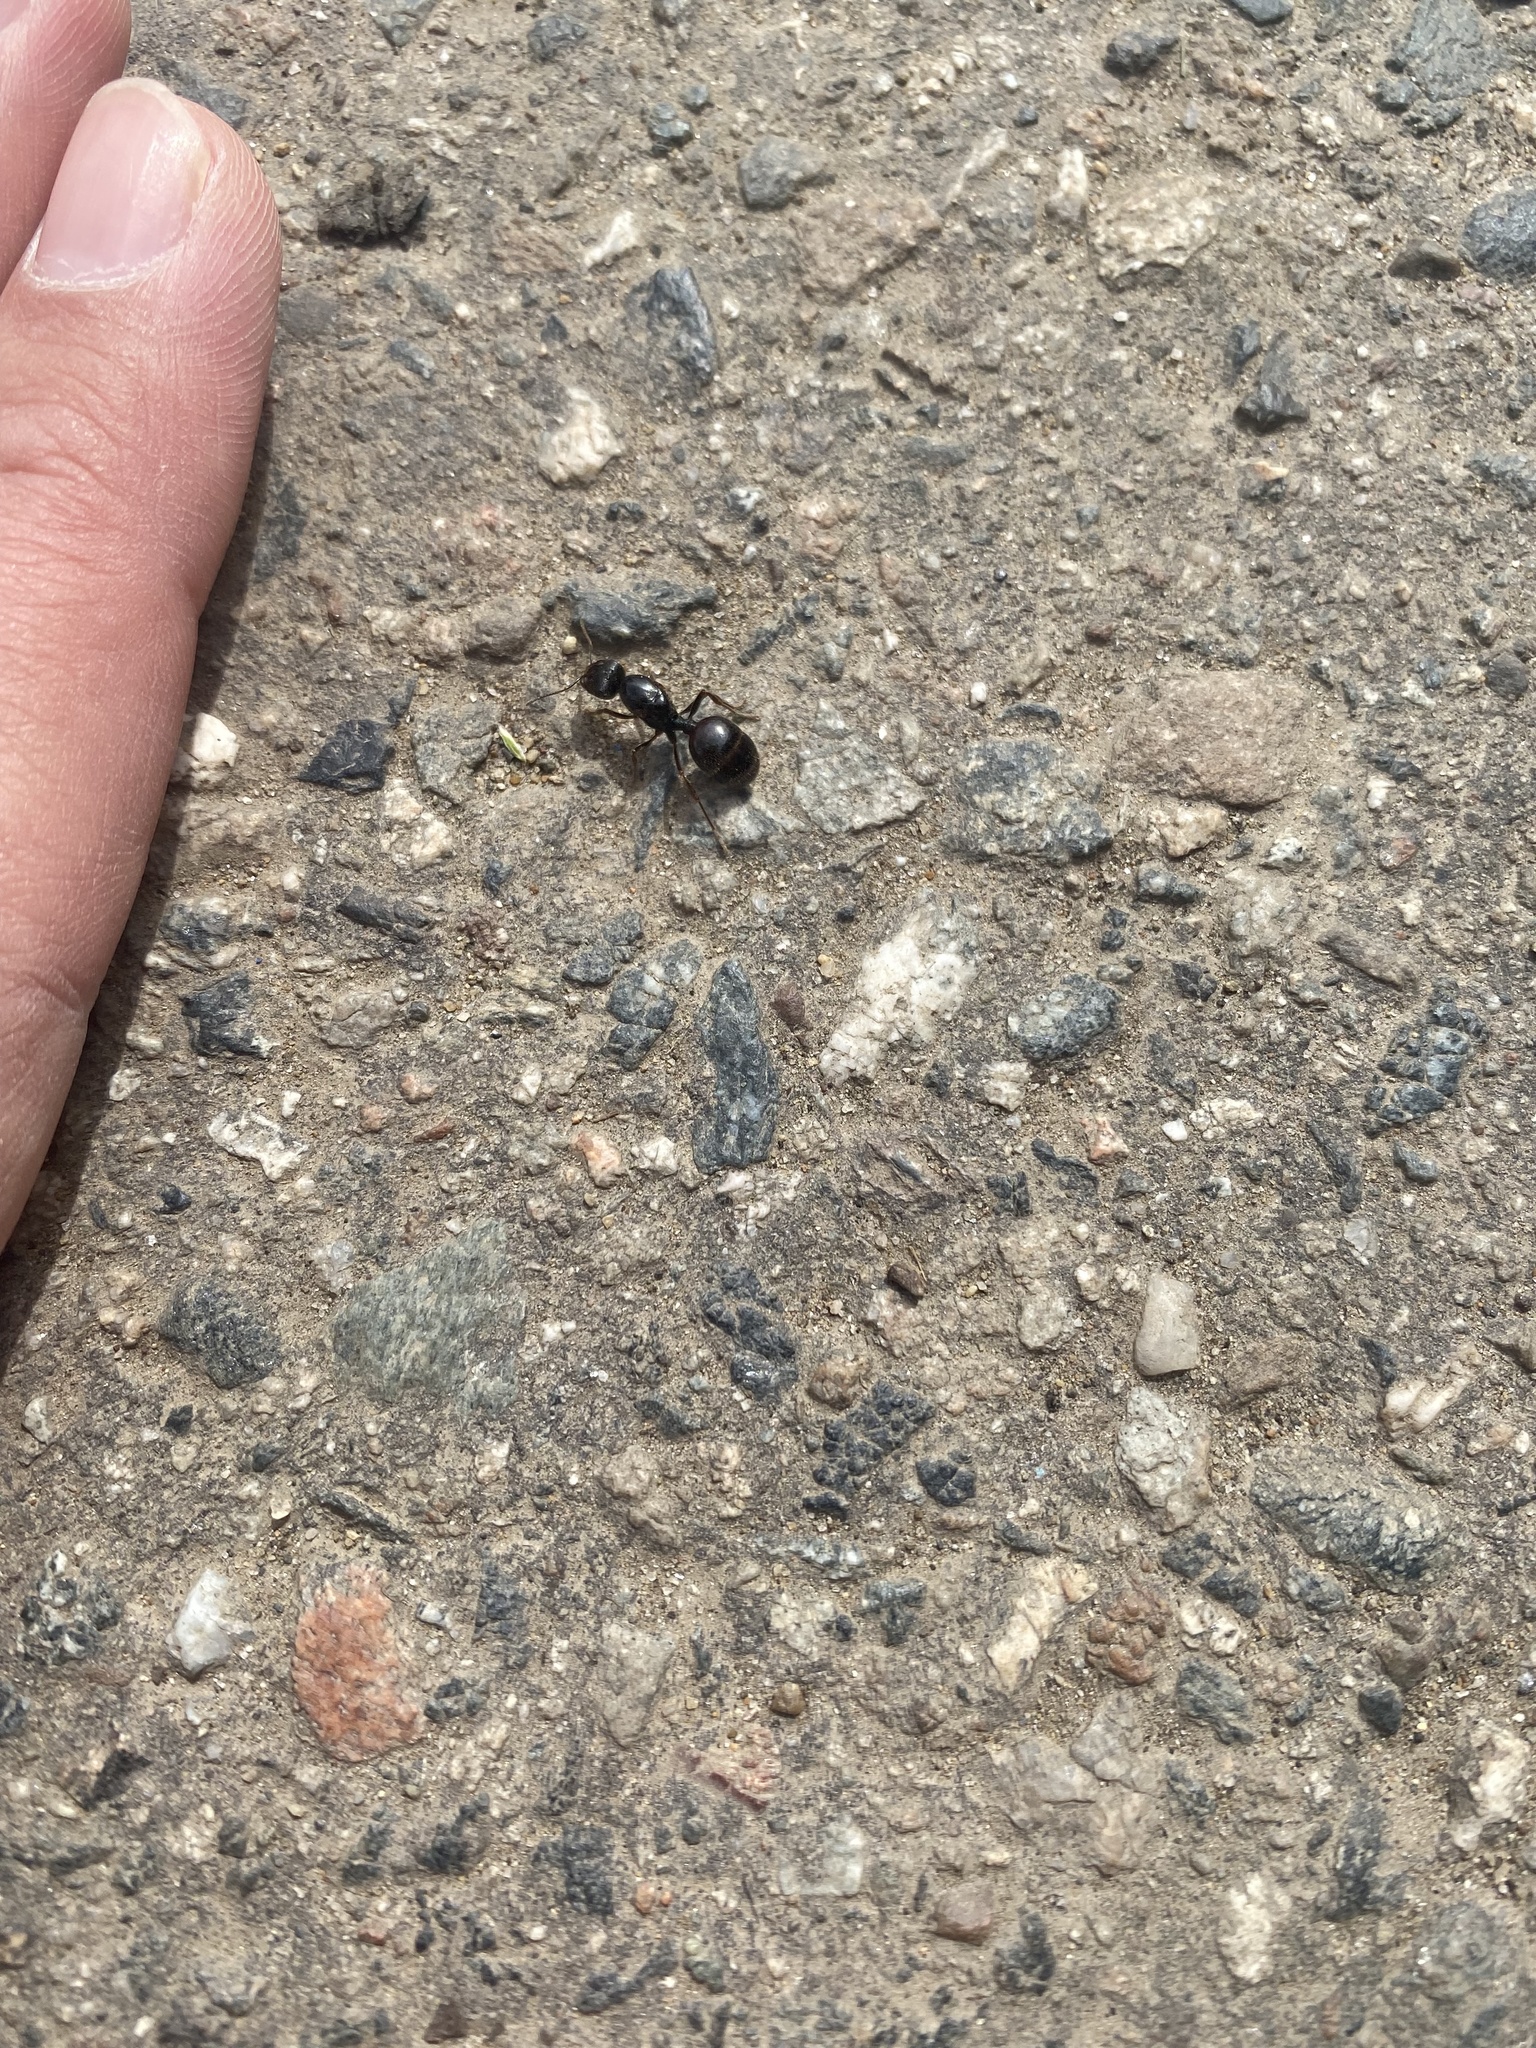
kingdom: Animalia
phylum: Arthropoda
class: Insecta
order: Hymenoptera
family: Formicidae
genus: Messor
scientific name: Messor
